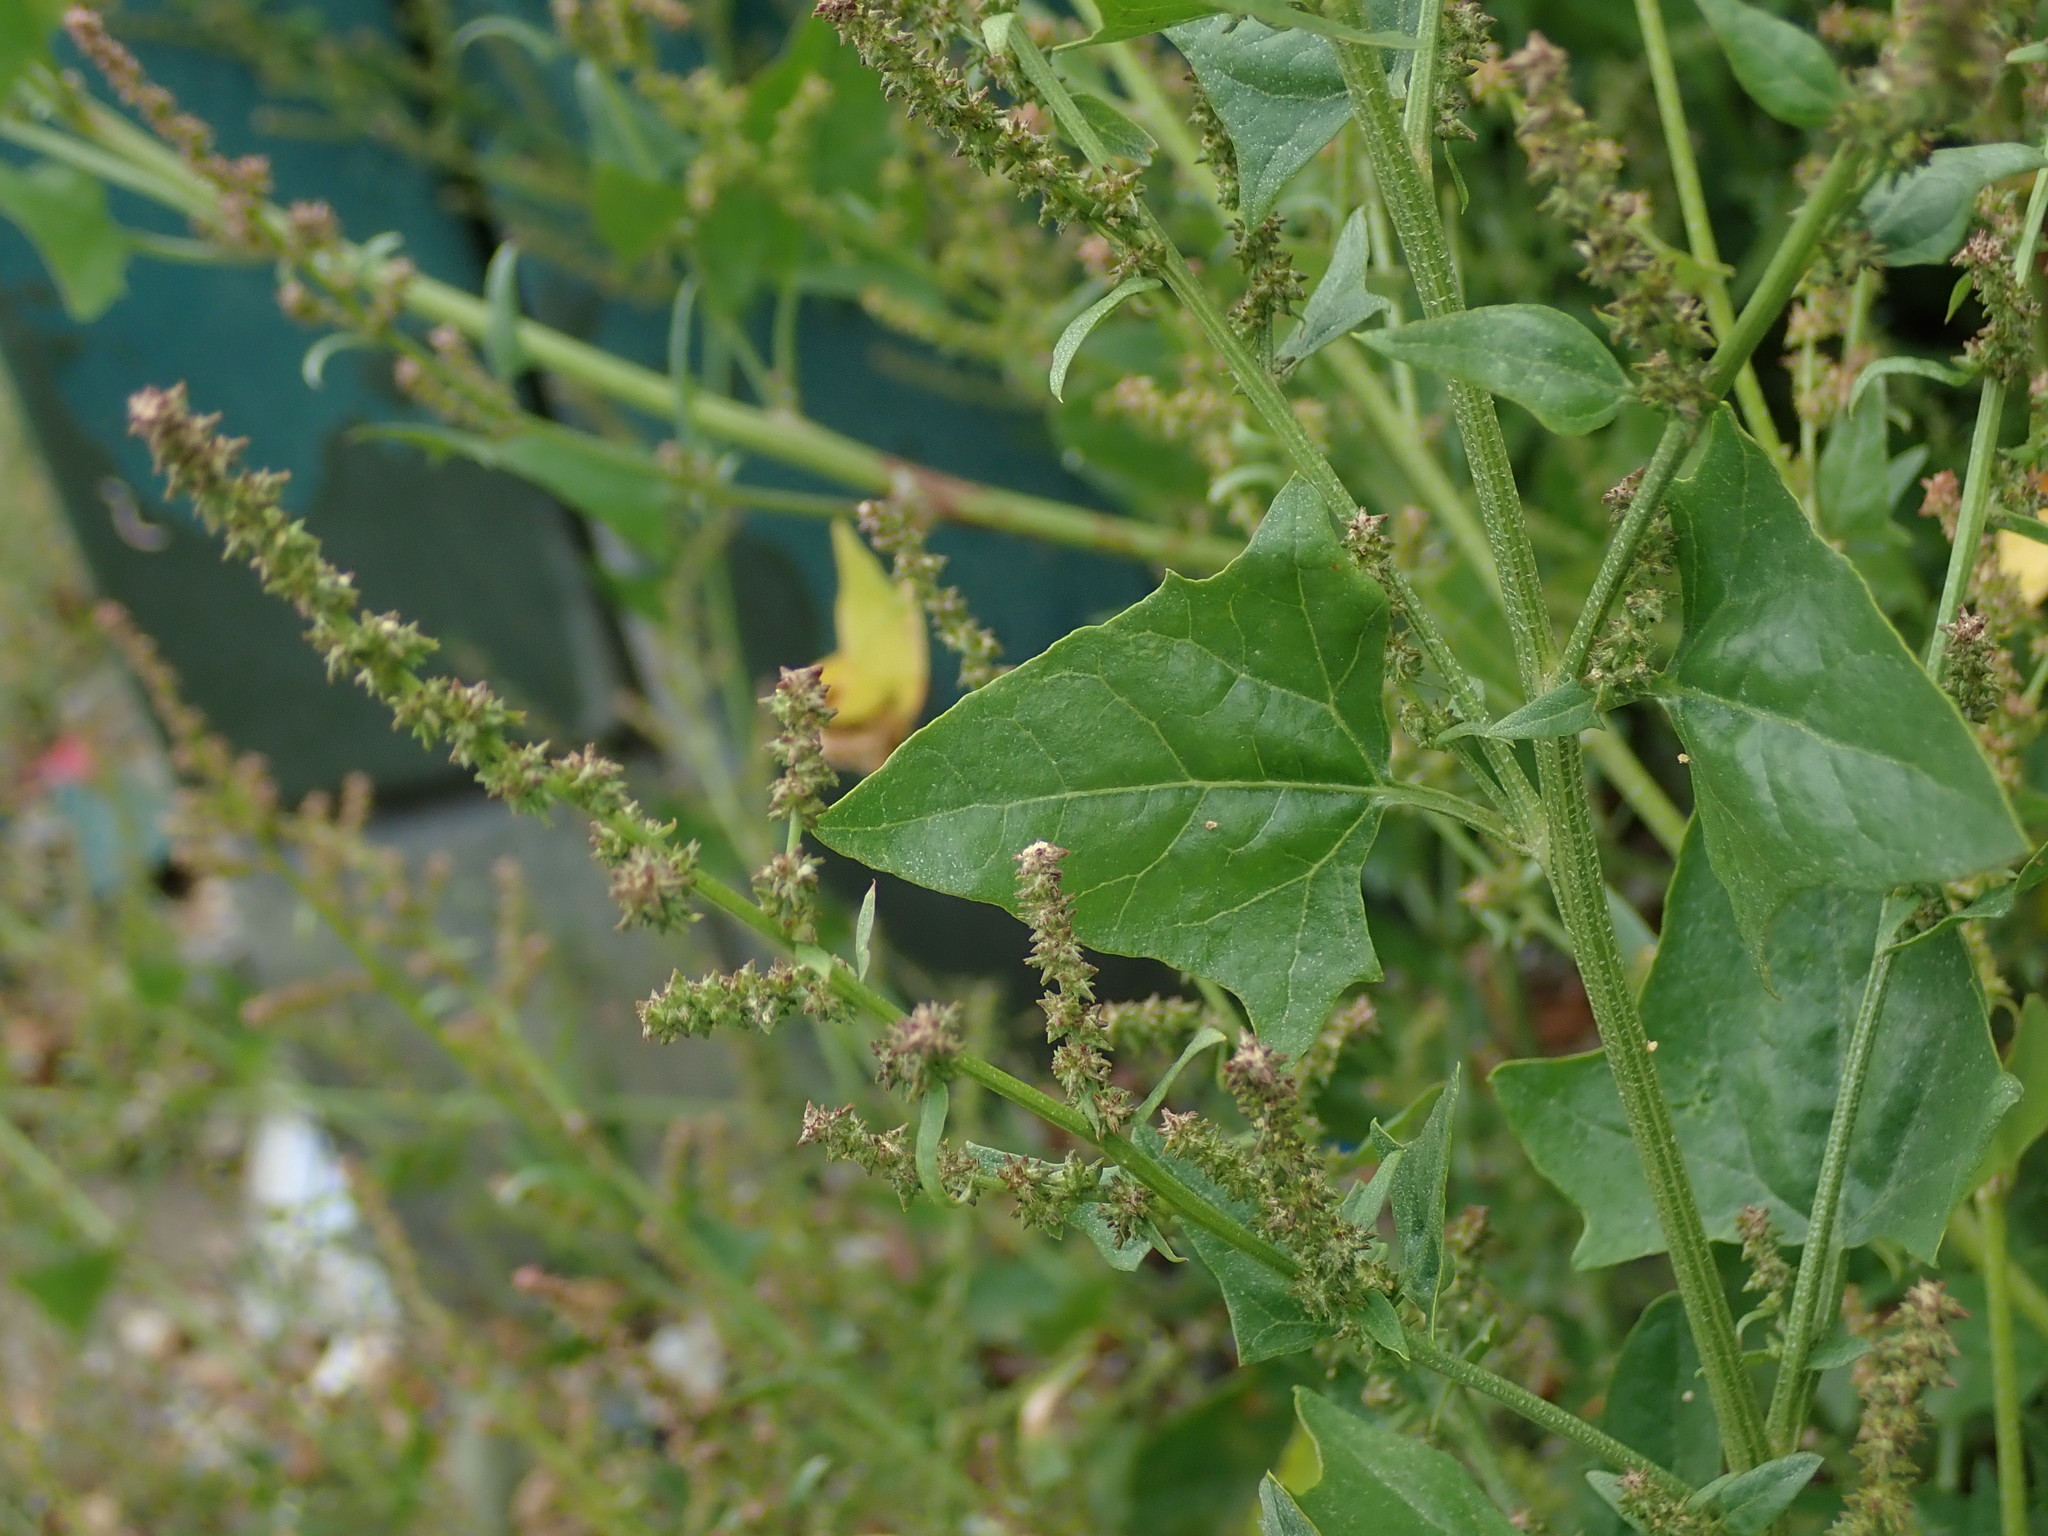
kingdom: Plantae
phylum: Tracheophyta
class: Magnoliopsida
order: Caryophyllales
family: Amaranthaceae
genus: Atriplex
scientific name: Atriplex prostrata
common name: Spear-leaved orache
